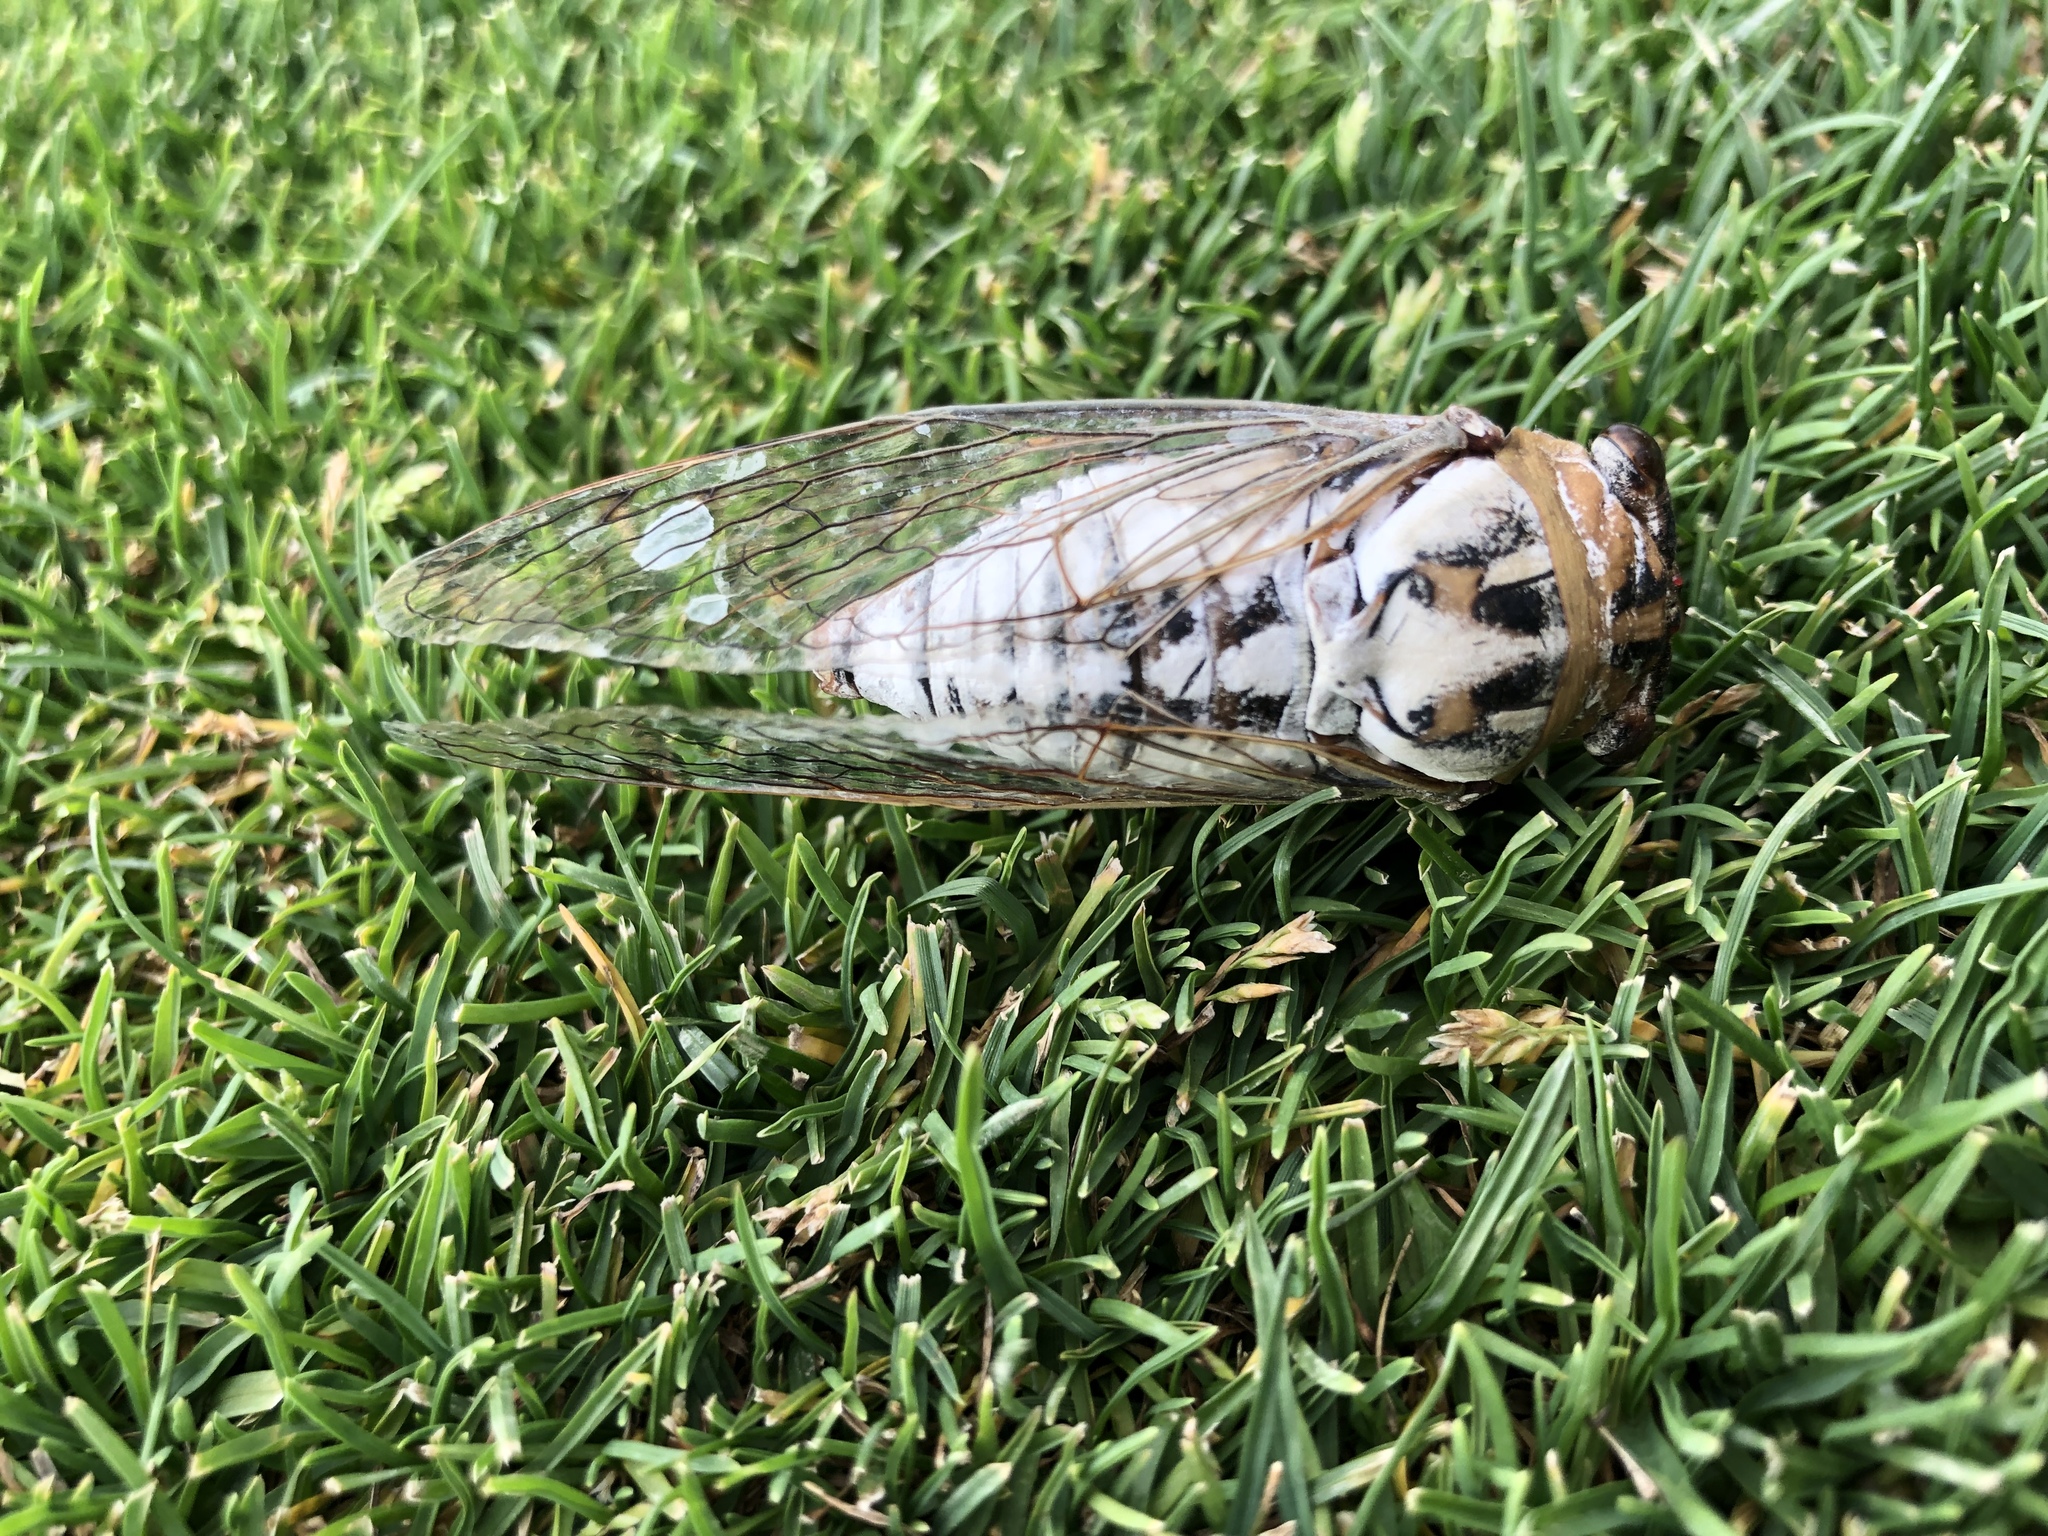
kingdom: Animalia
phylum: Arthropoda
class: Insecta
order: Hemiptera
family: Cicadidae
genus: Megatibicen
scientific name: Megatibicen dealbatus
